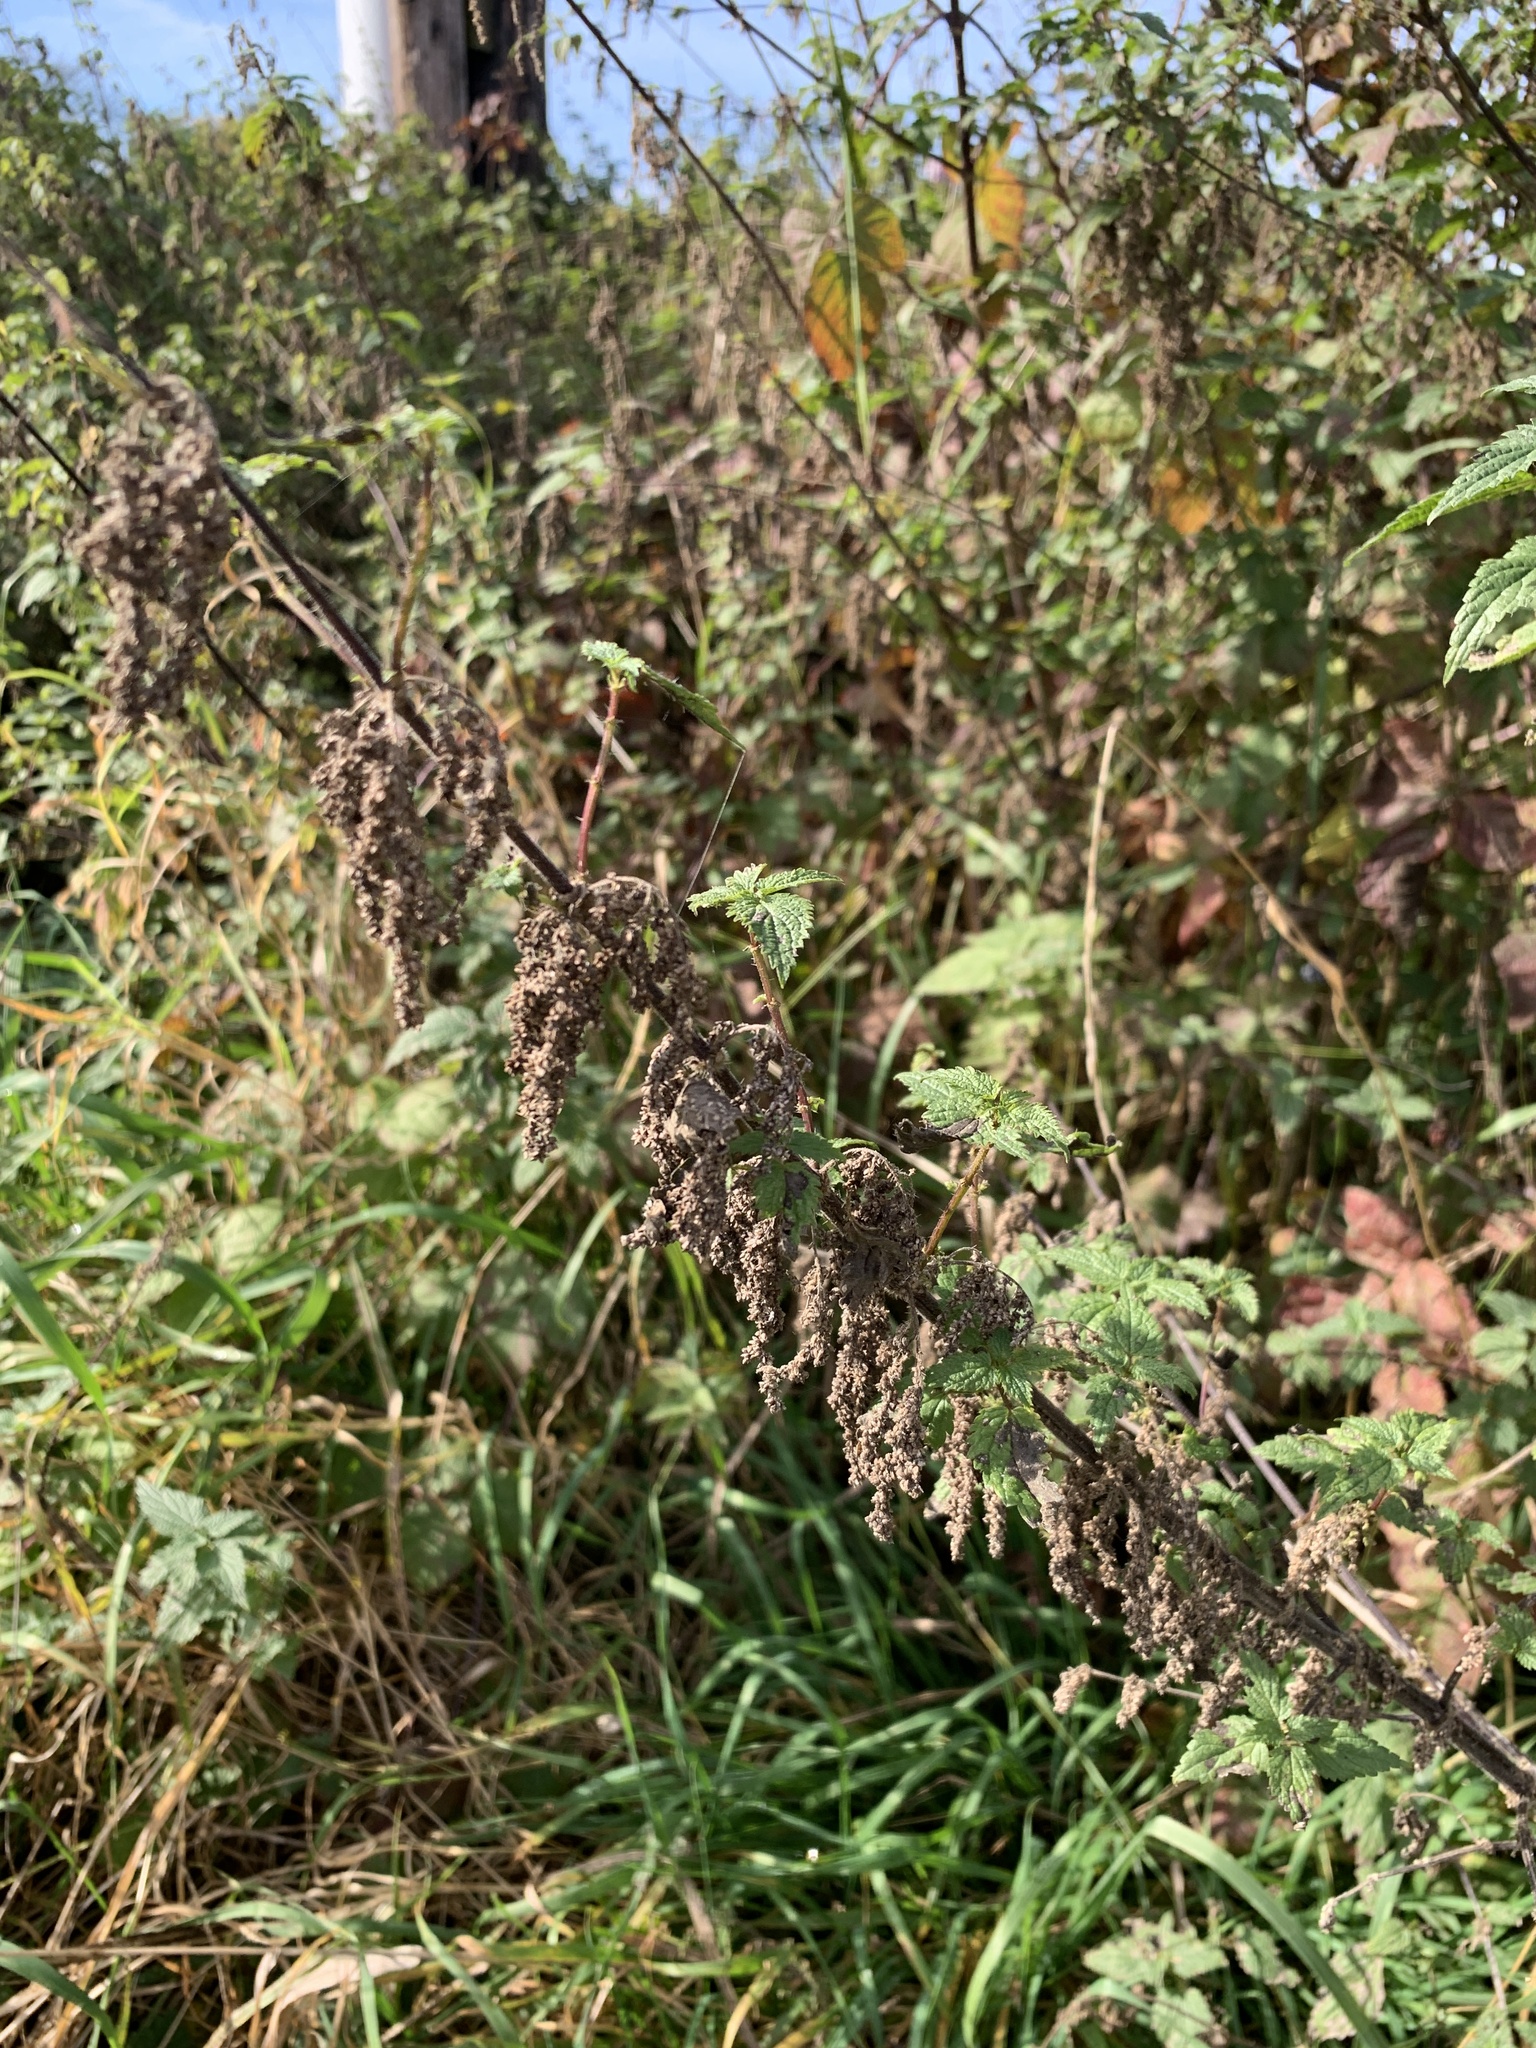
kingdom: Plantae
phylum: Tracheophyta
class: Magnoliopsida
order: Rosales
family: Urticaceae
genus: Urtica
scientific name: Urtica dioica
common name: Common nettle
